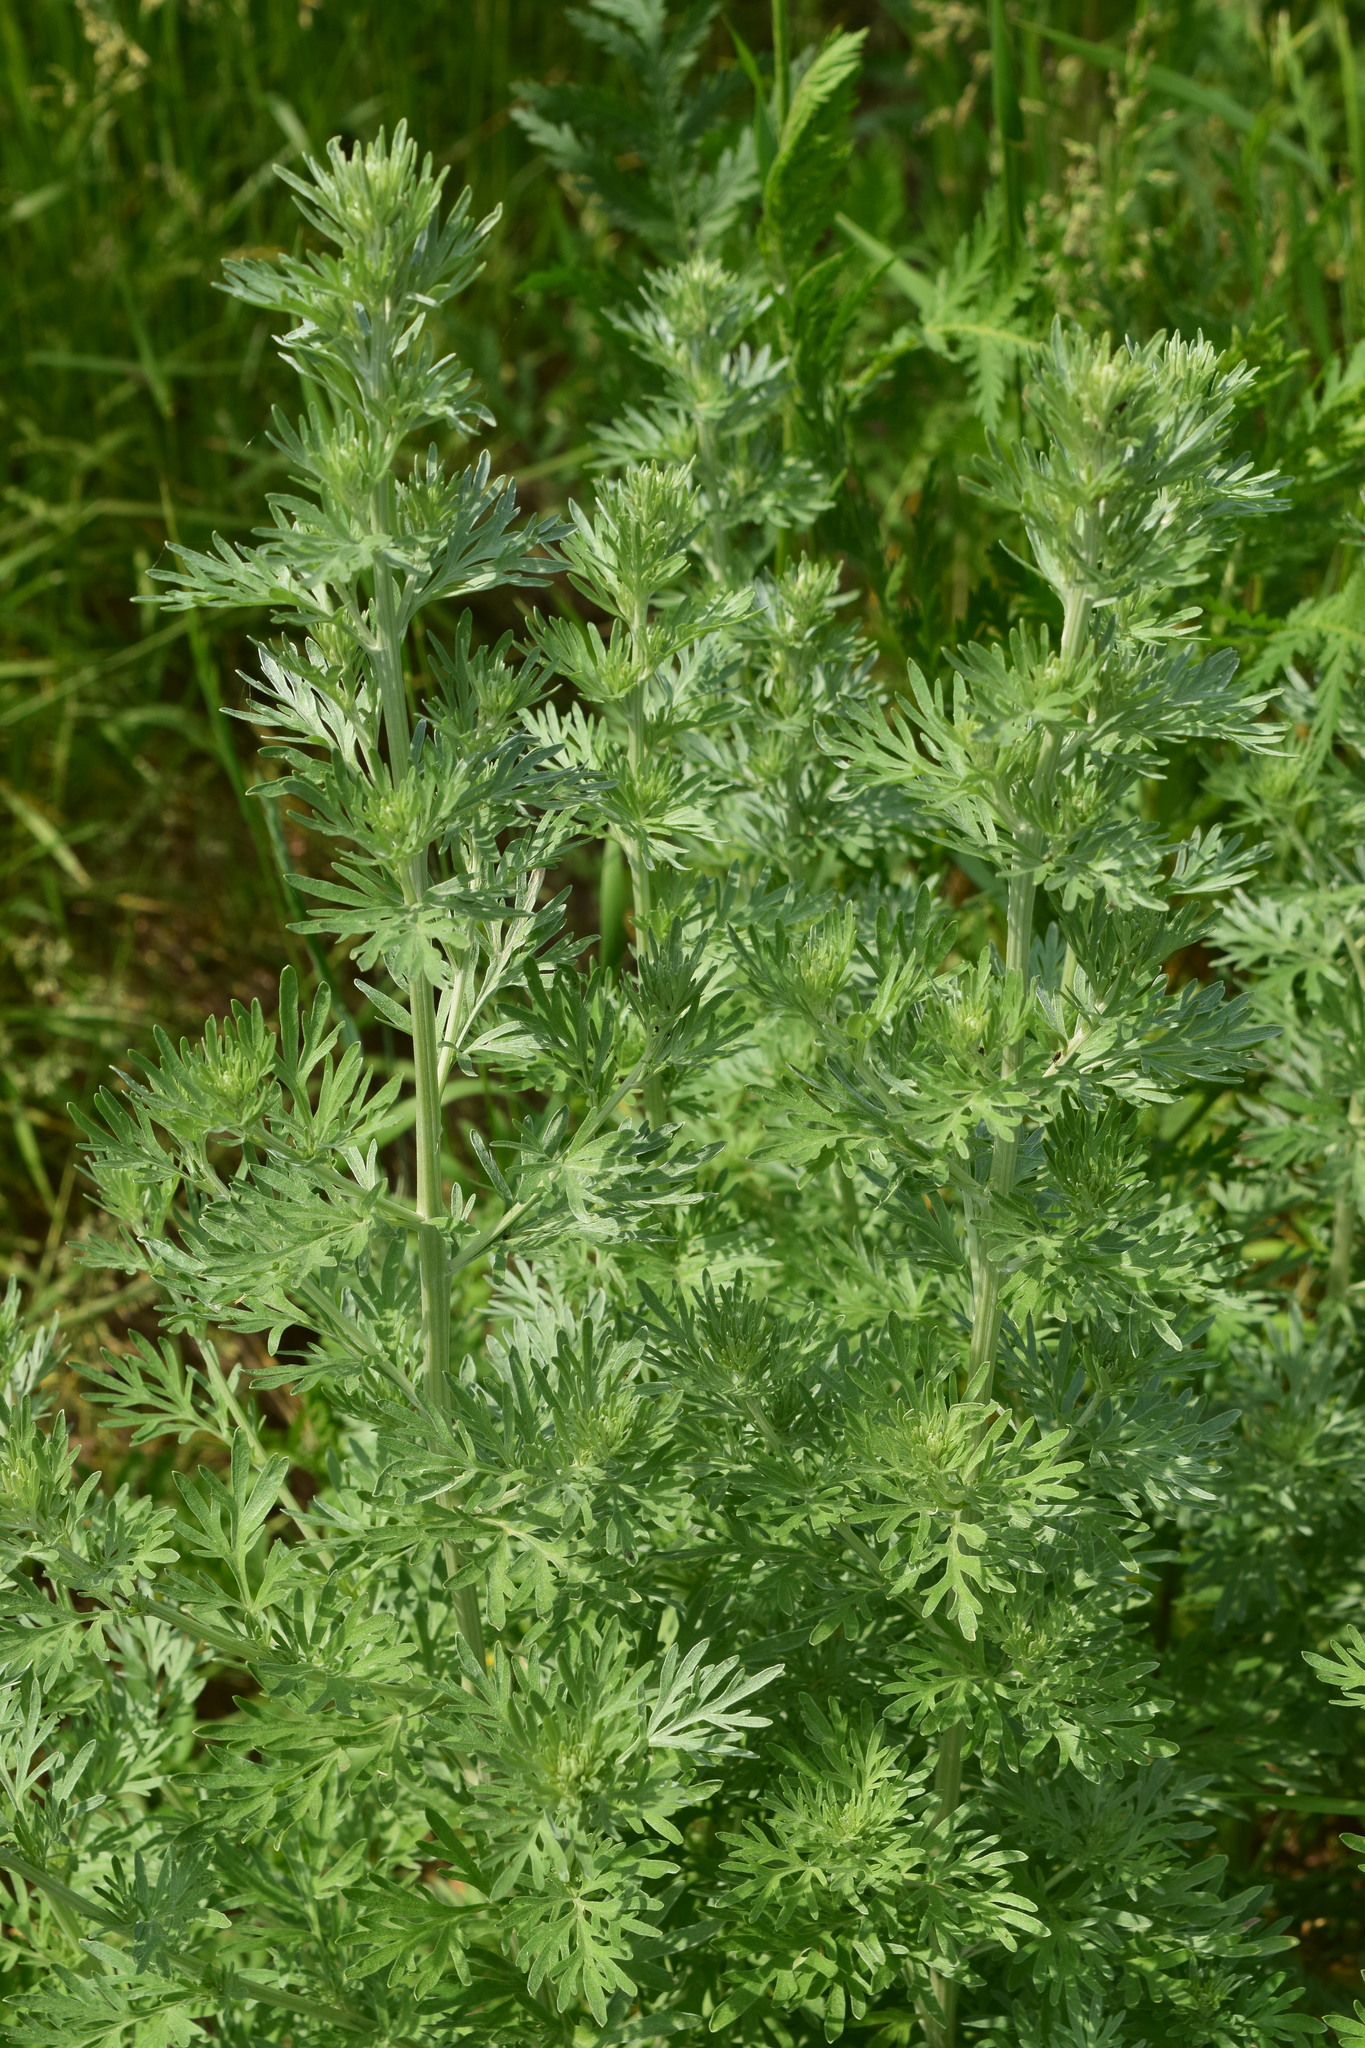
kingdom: Plantae
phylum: Tracheophyta
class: Magnoliopsida
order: Asterales
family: Asteraceae
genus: Artemisia
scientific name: Artemisia absinthium
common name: Wormwood
